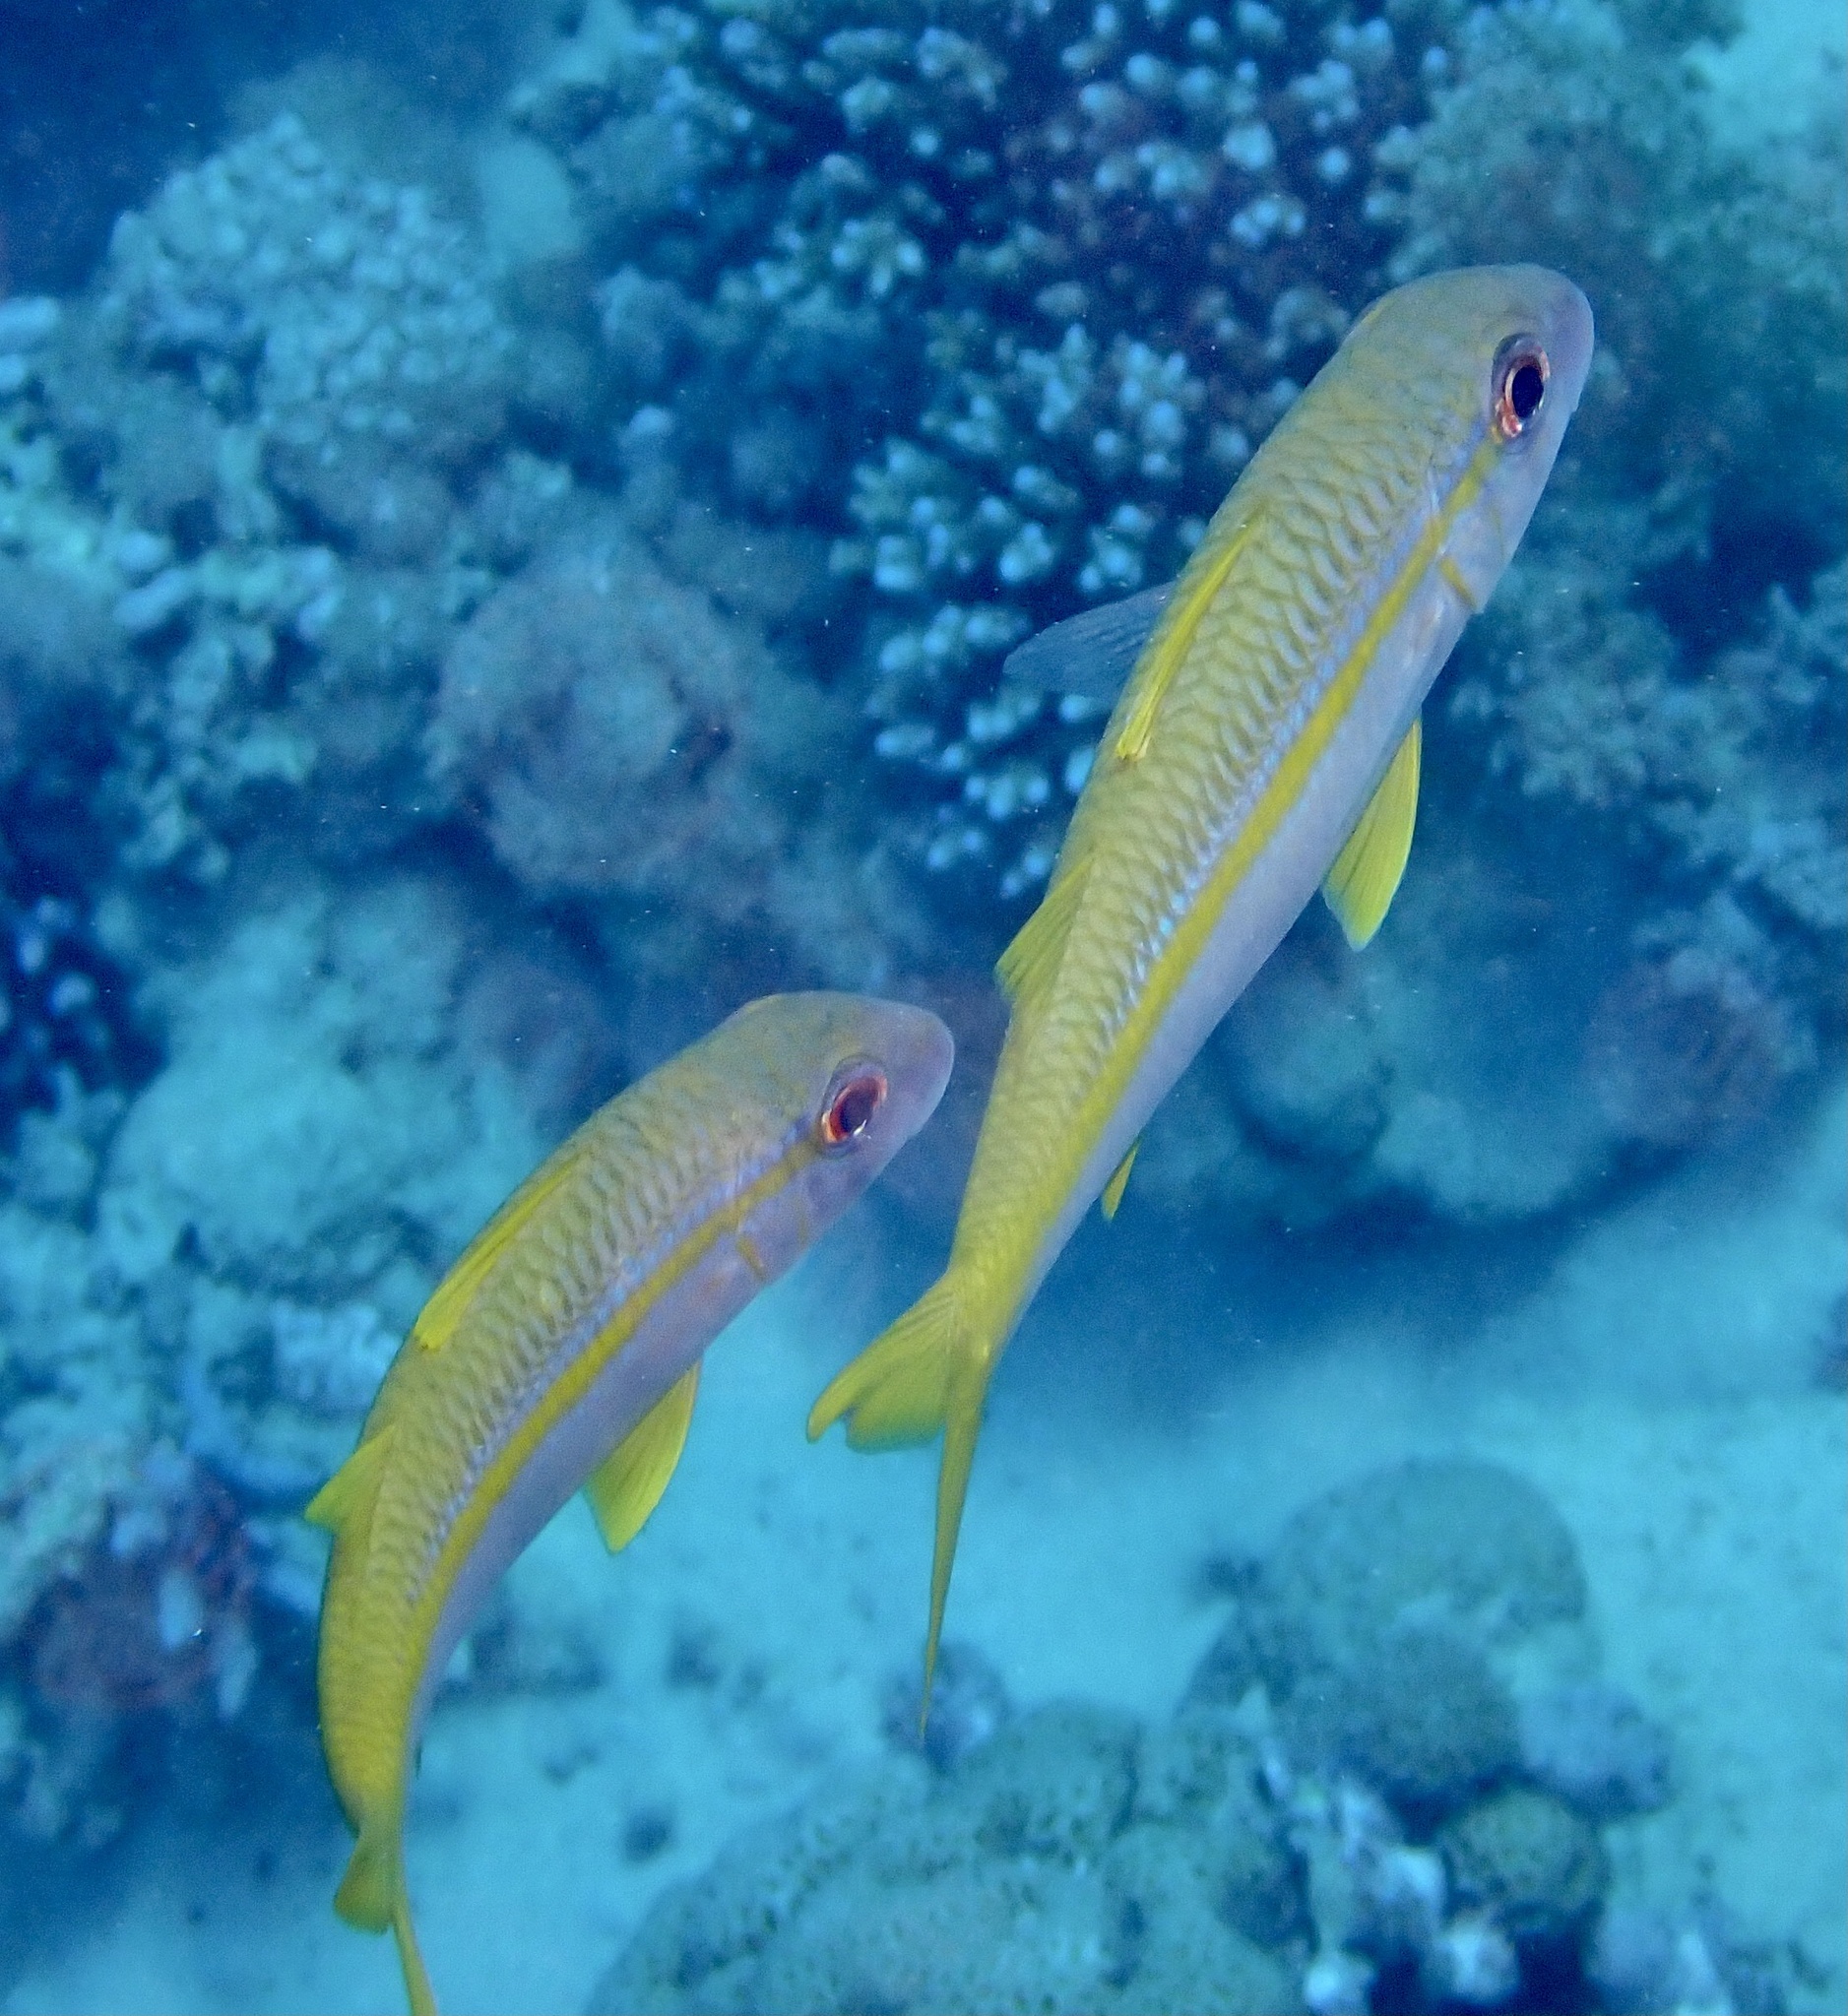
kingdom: Animalia
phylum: Chordata
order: Perciformes
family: Mullidae
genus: Mulloidichthys
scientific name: Mulloidichthys vanicolensis
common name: Yellowfin goatfish
